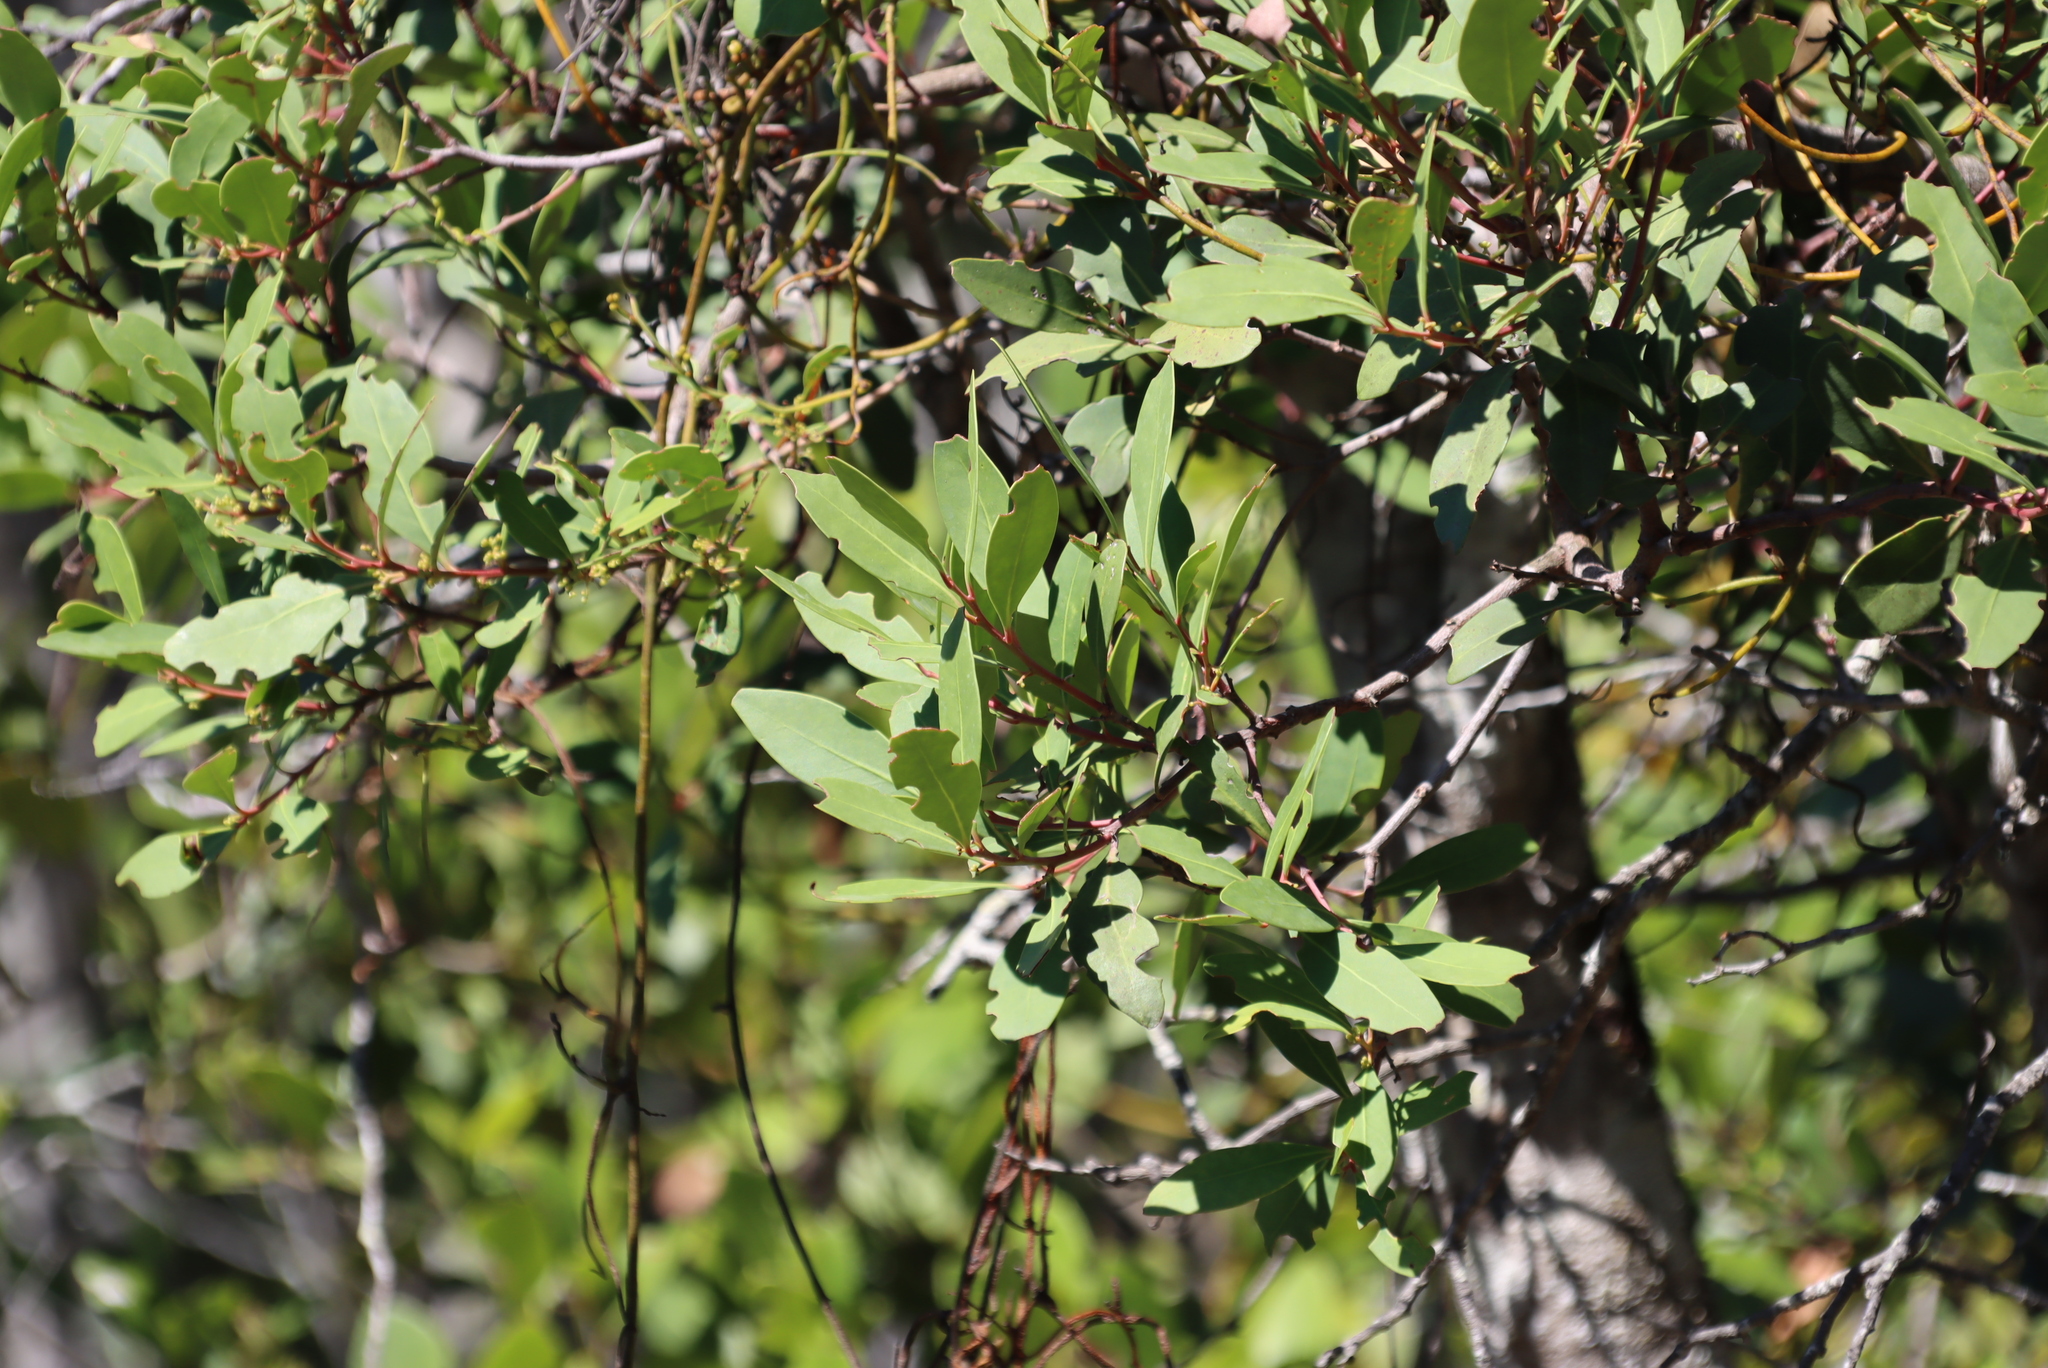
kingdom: Plantae
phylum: Tracheophyta
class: Magnoliopsida
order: Celastrales
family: Celastraceae
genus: Pterocelastrus
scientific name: Pterocelastrus tricuspidatus
